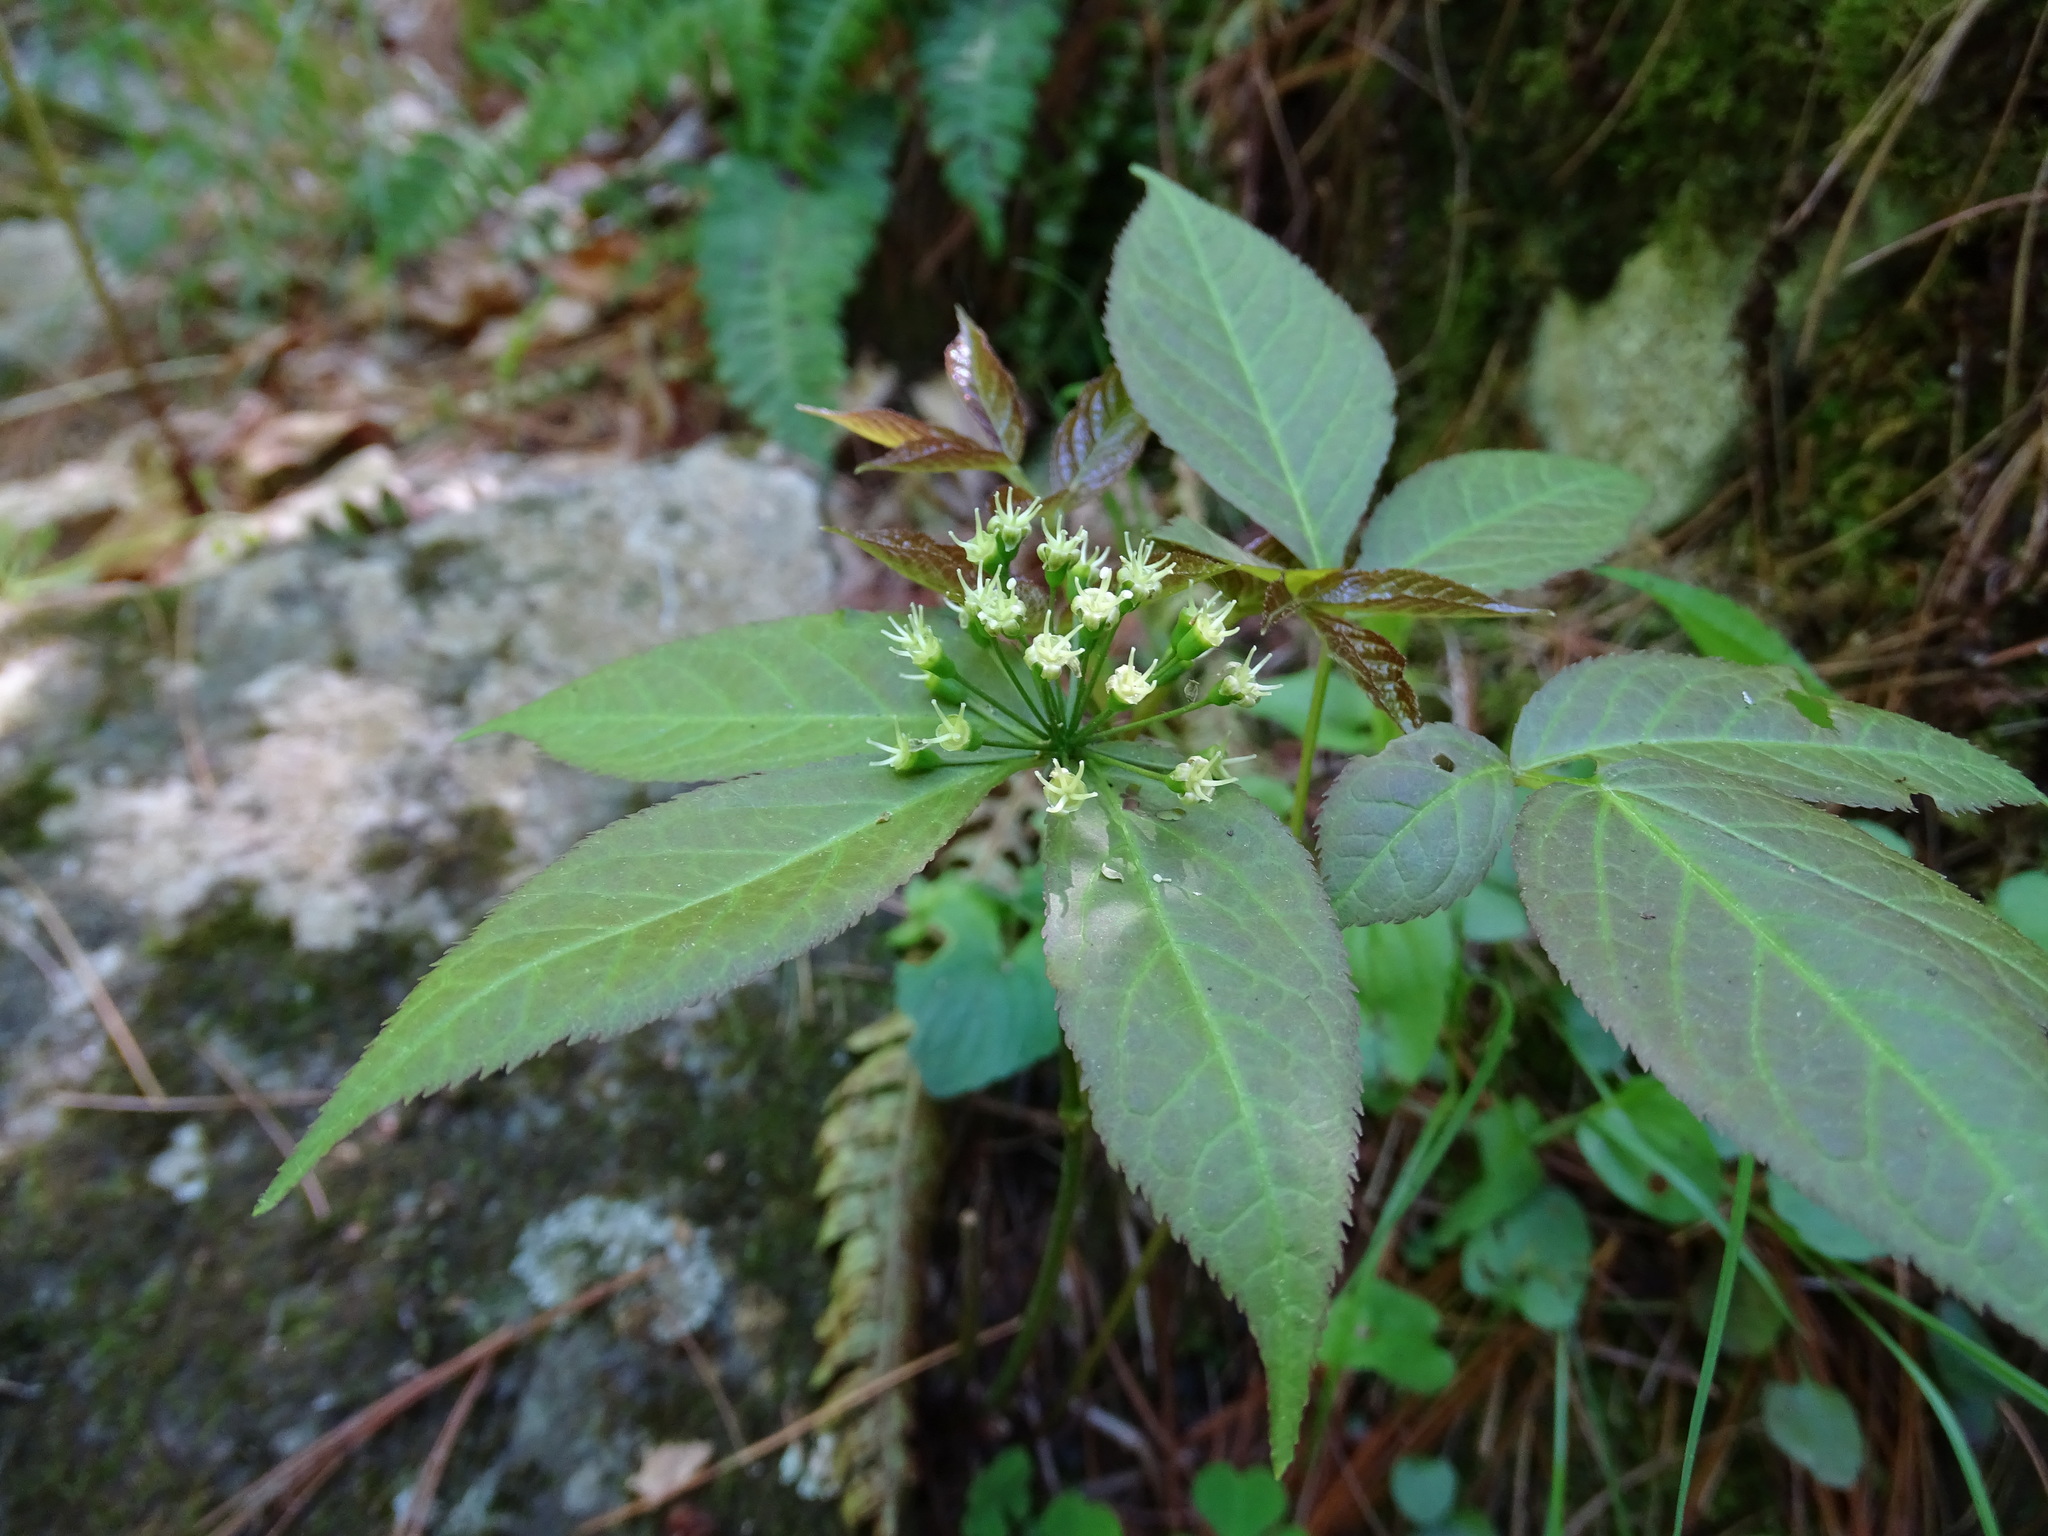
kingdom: Plantae
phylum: Tracheophyta
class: Magnoliopsida
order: Apiales
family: Araliaceae
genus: Aralia
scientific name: Aralia nudicaulis
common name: Wild sarsaparilla
